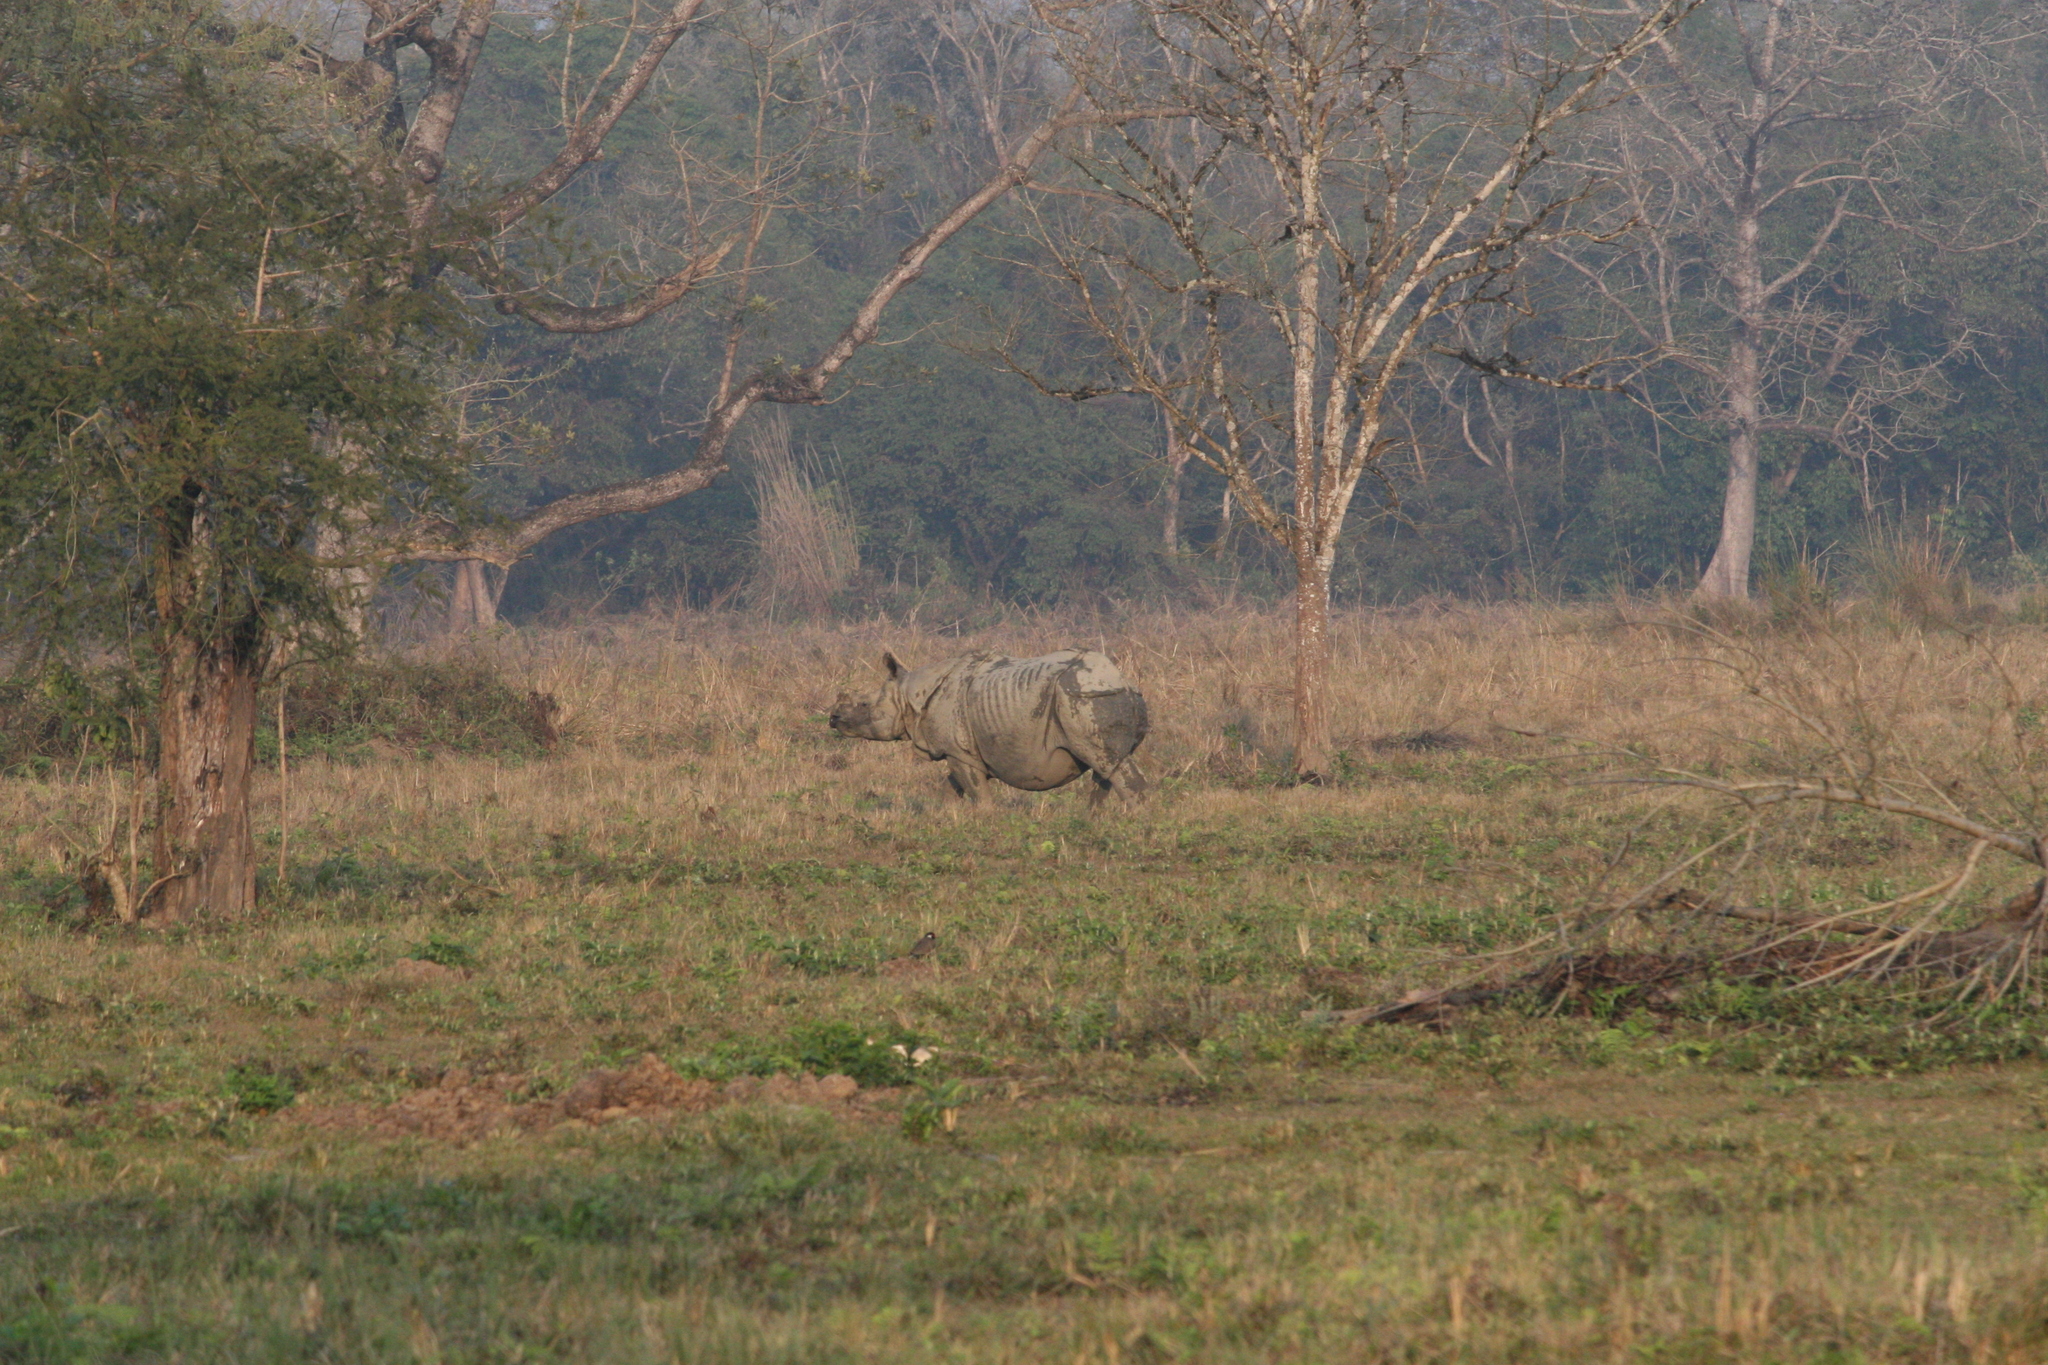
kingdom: Animalia
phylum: Chordata
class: Mammalia
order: Perissodactyla
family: Rhinocerotidae
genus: Rhinoceros
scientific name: Rhinoceros unicornis
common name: Indian rhinoceros
